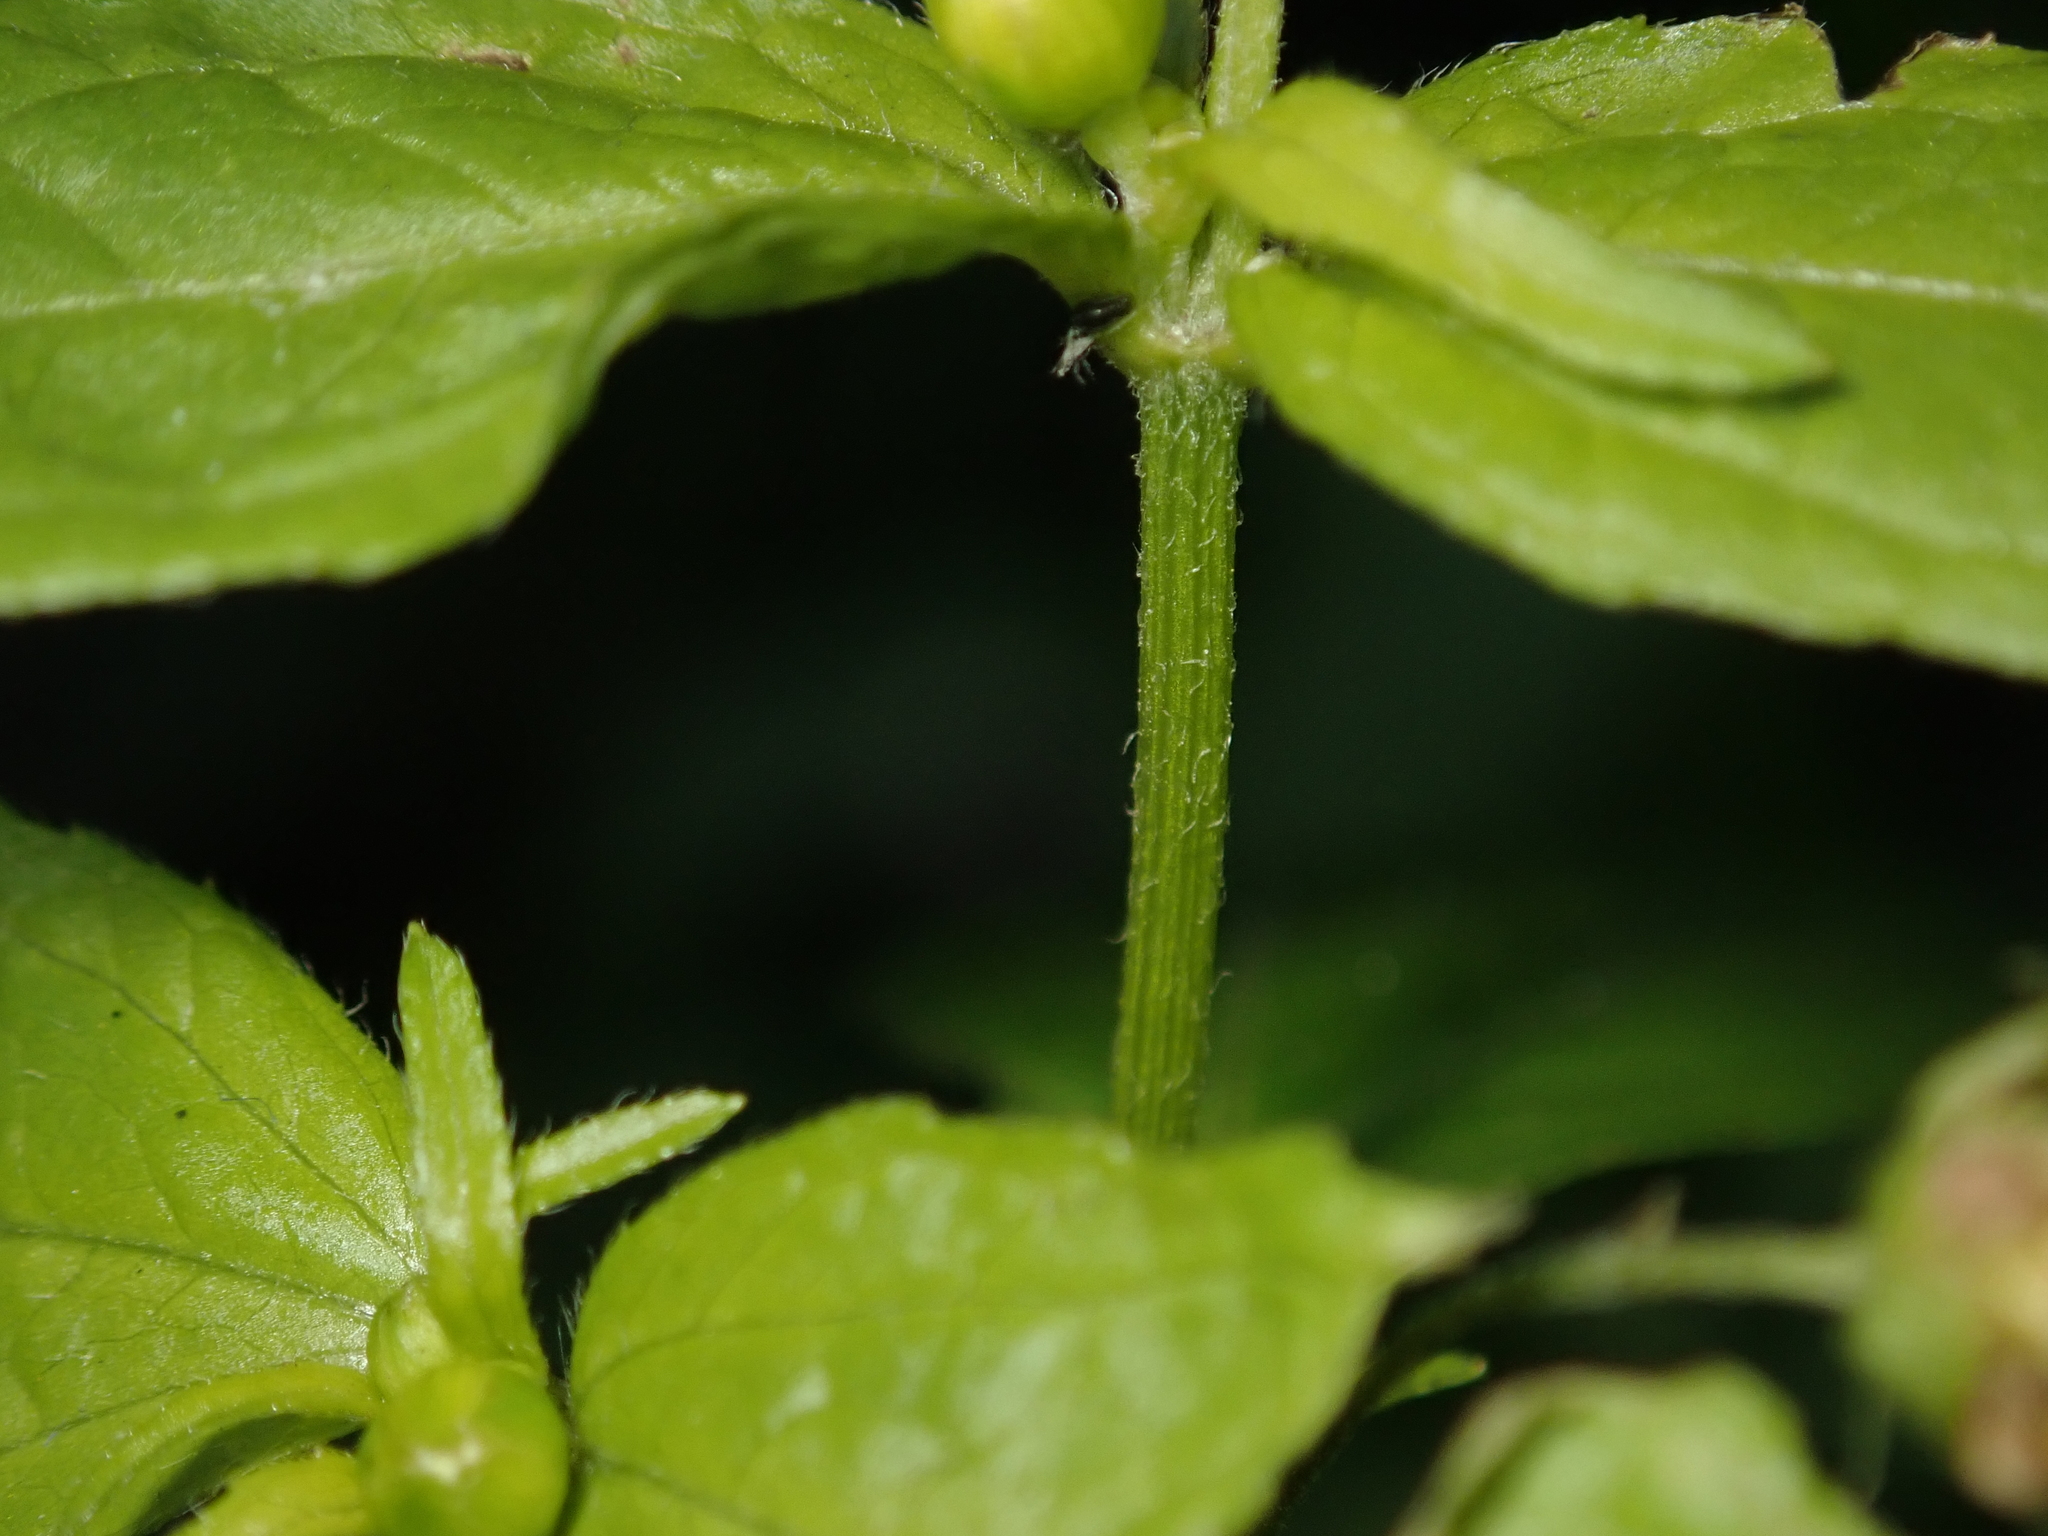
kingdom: Plantae
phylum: Tracheophyta
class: Magnoliopsida
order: Asterales
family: Asteraceae
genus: Galinsoga
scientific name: Galinsoga parviflora
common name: Gallant soldier
